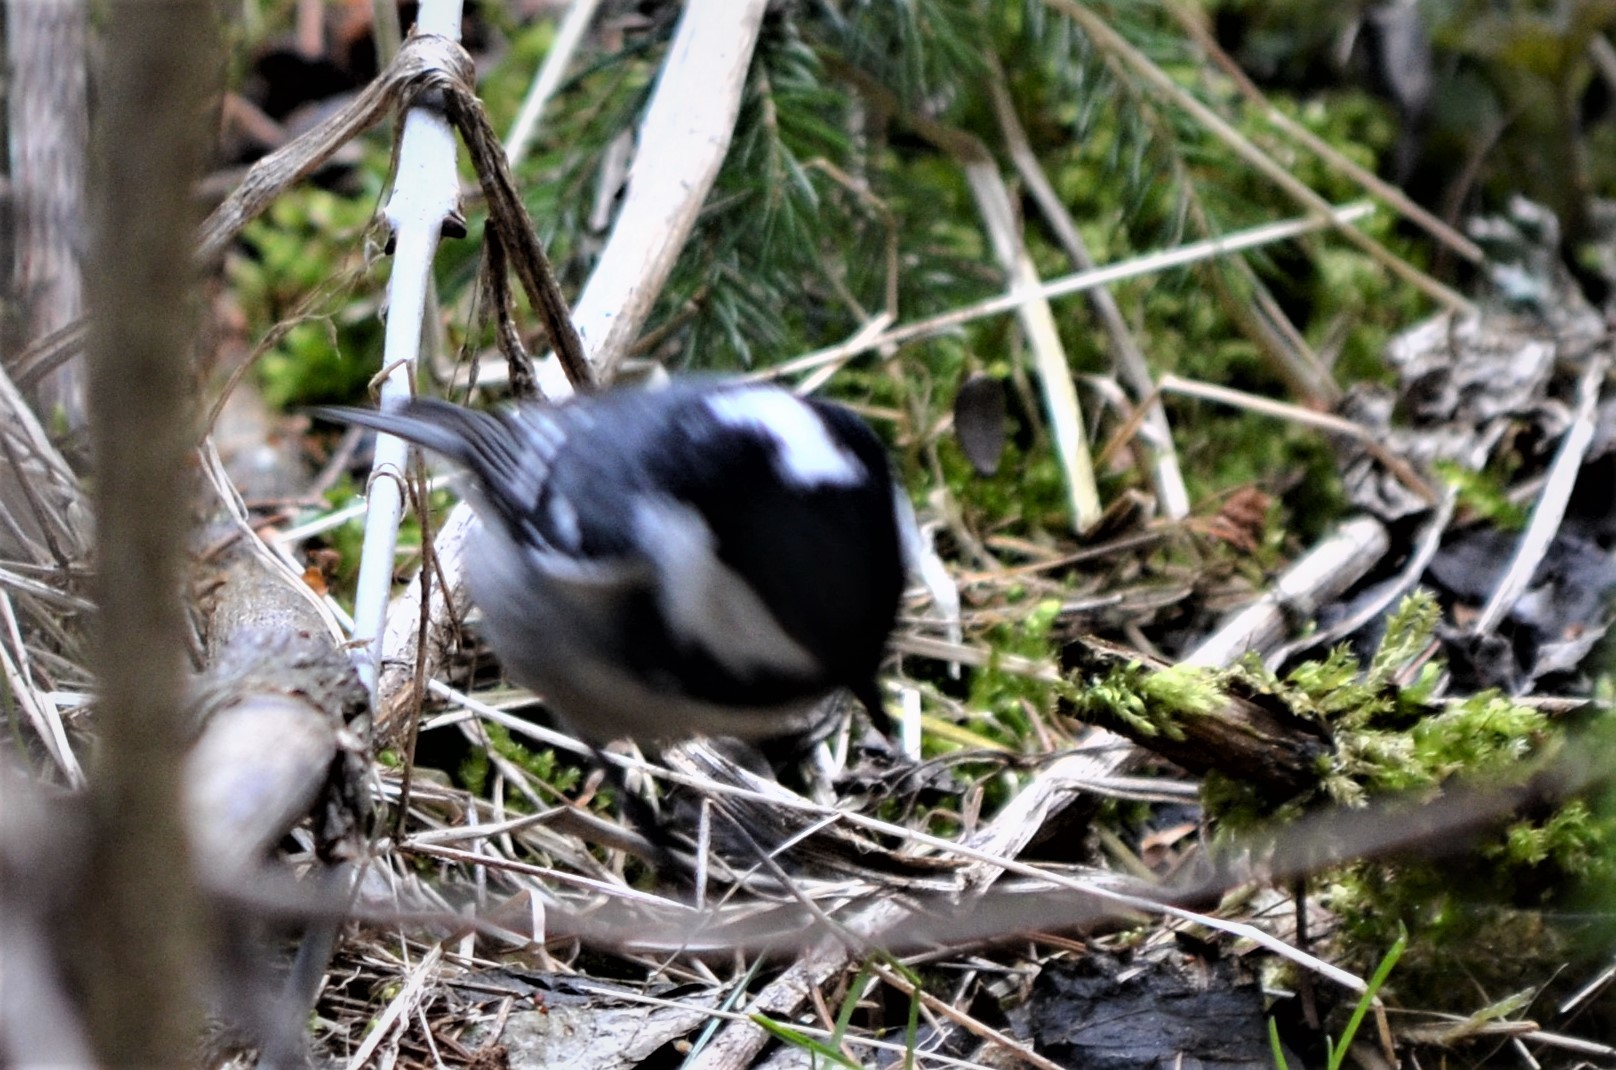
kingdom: Animalia
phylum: Chordata
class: Aves
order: Passeriformes
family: Paridae
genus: Periparus
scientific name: Periparus ater
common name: Coal tit
